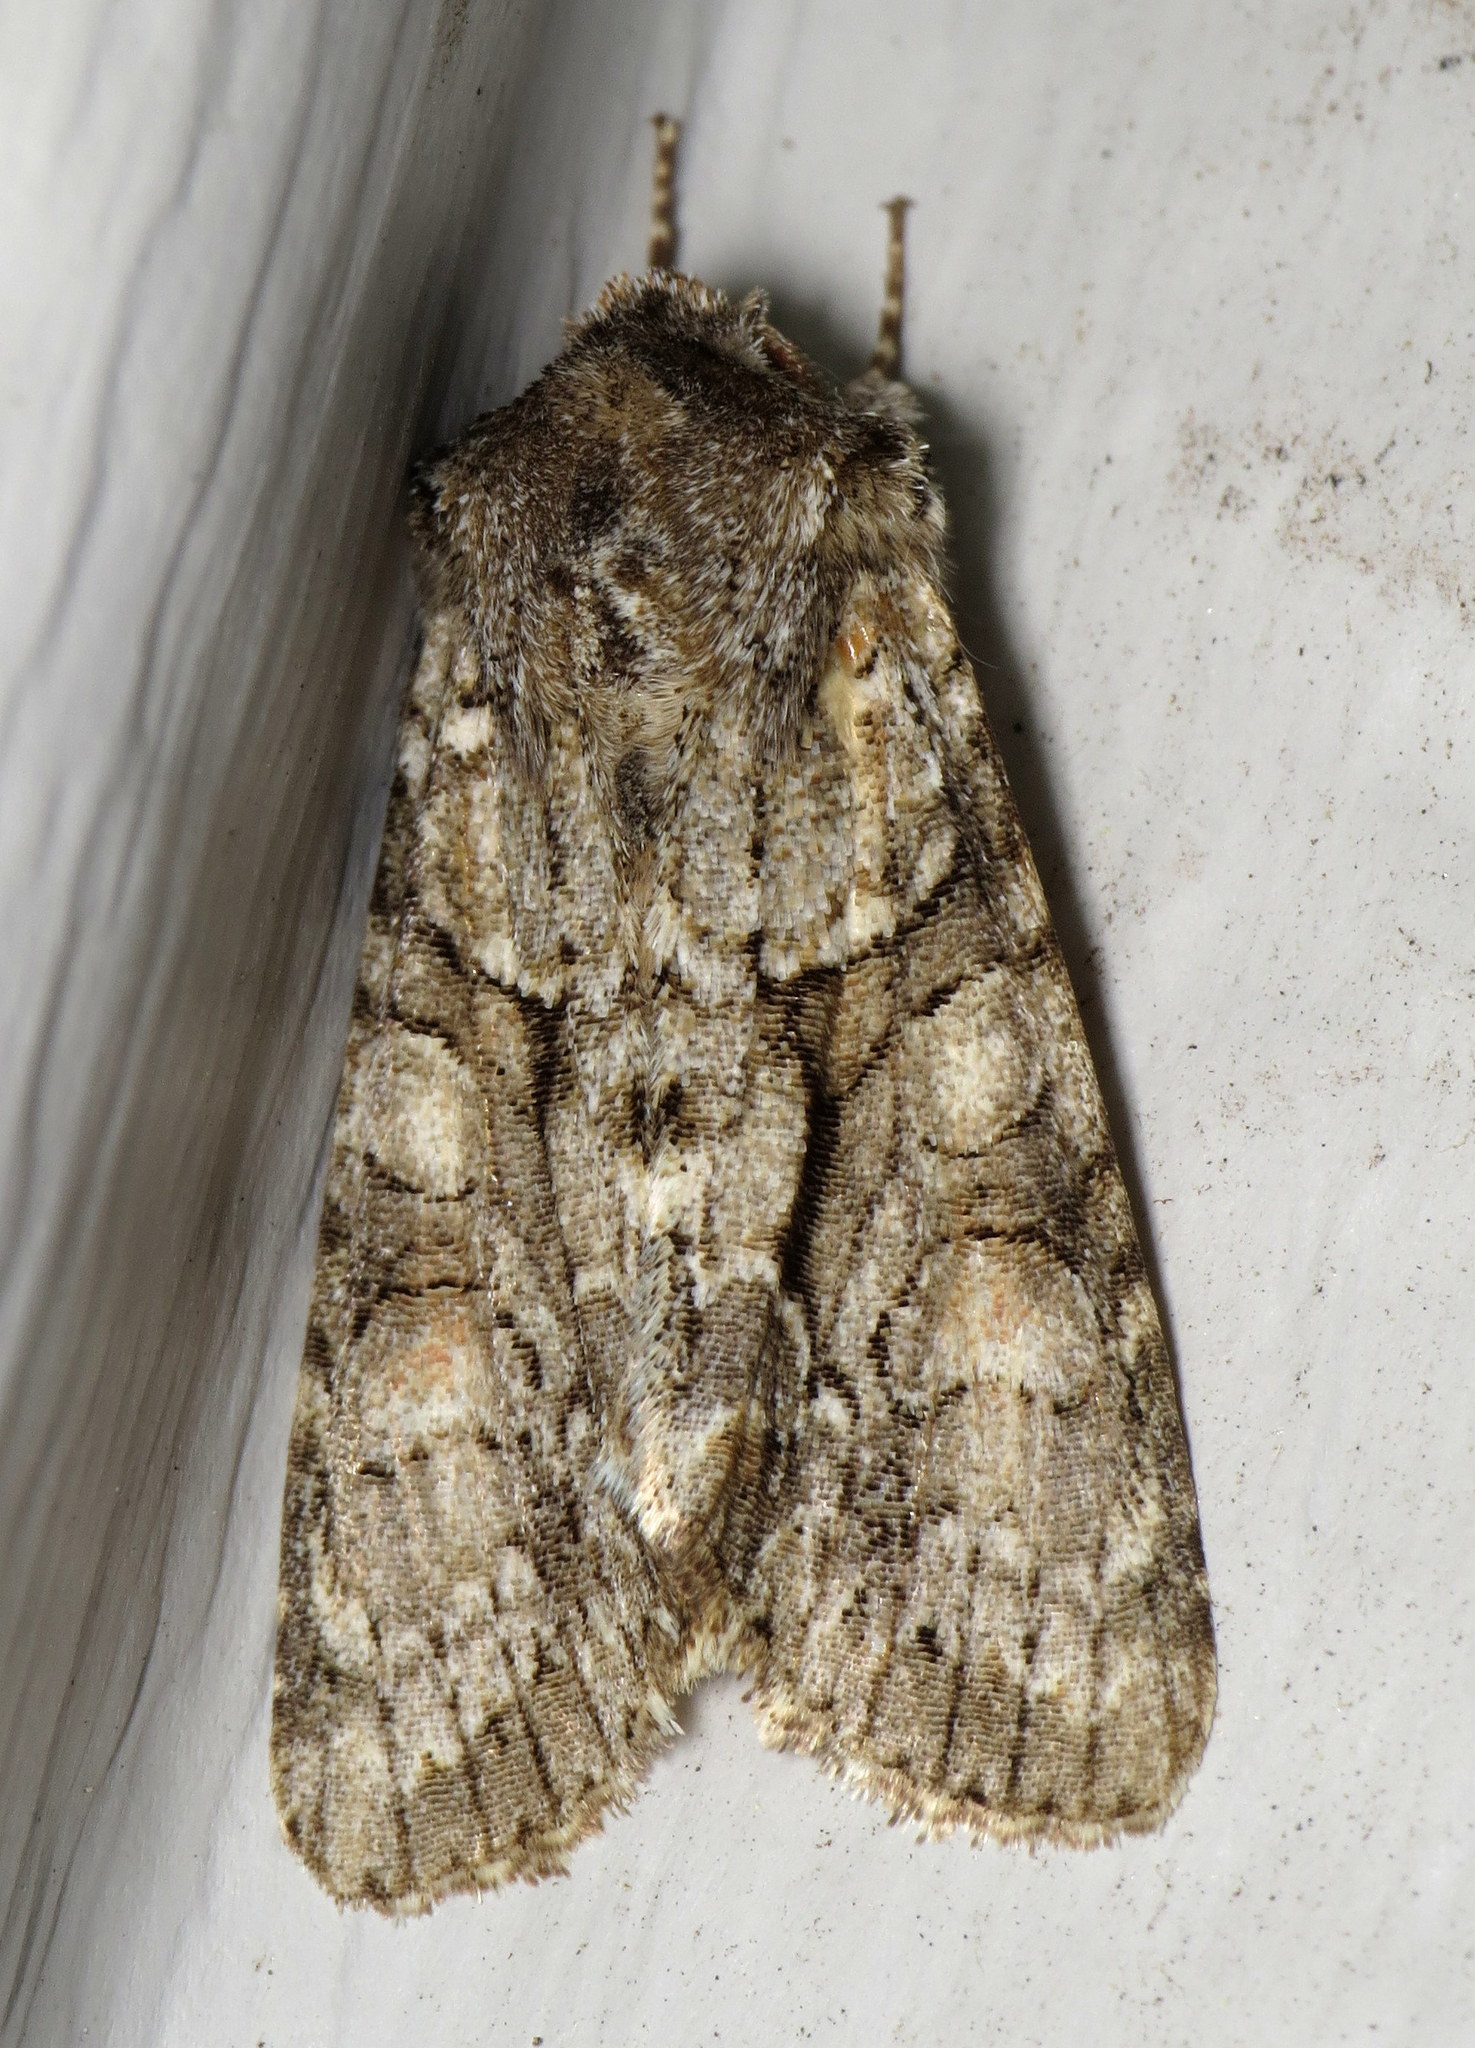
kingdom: Animalia
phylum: Arthropoda
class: Insecta
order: Lepidoptera
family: Noctuidae
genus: Achatia
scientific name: Achatia distincta
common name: Distinct quaker
